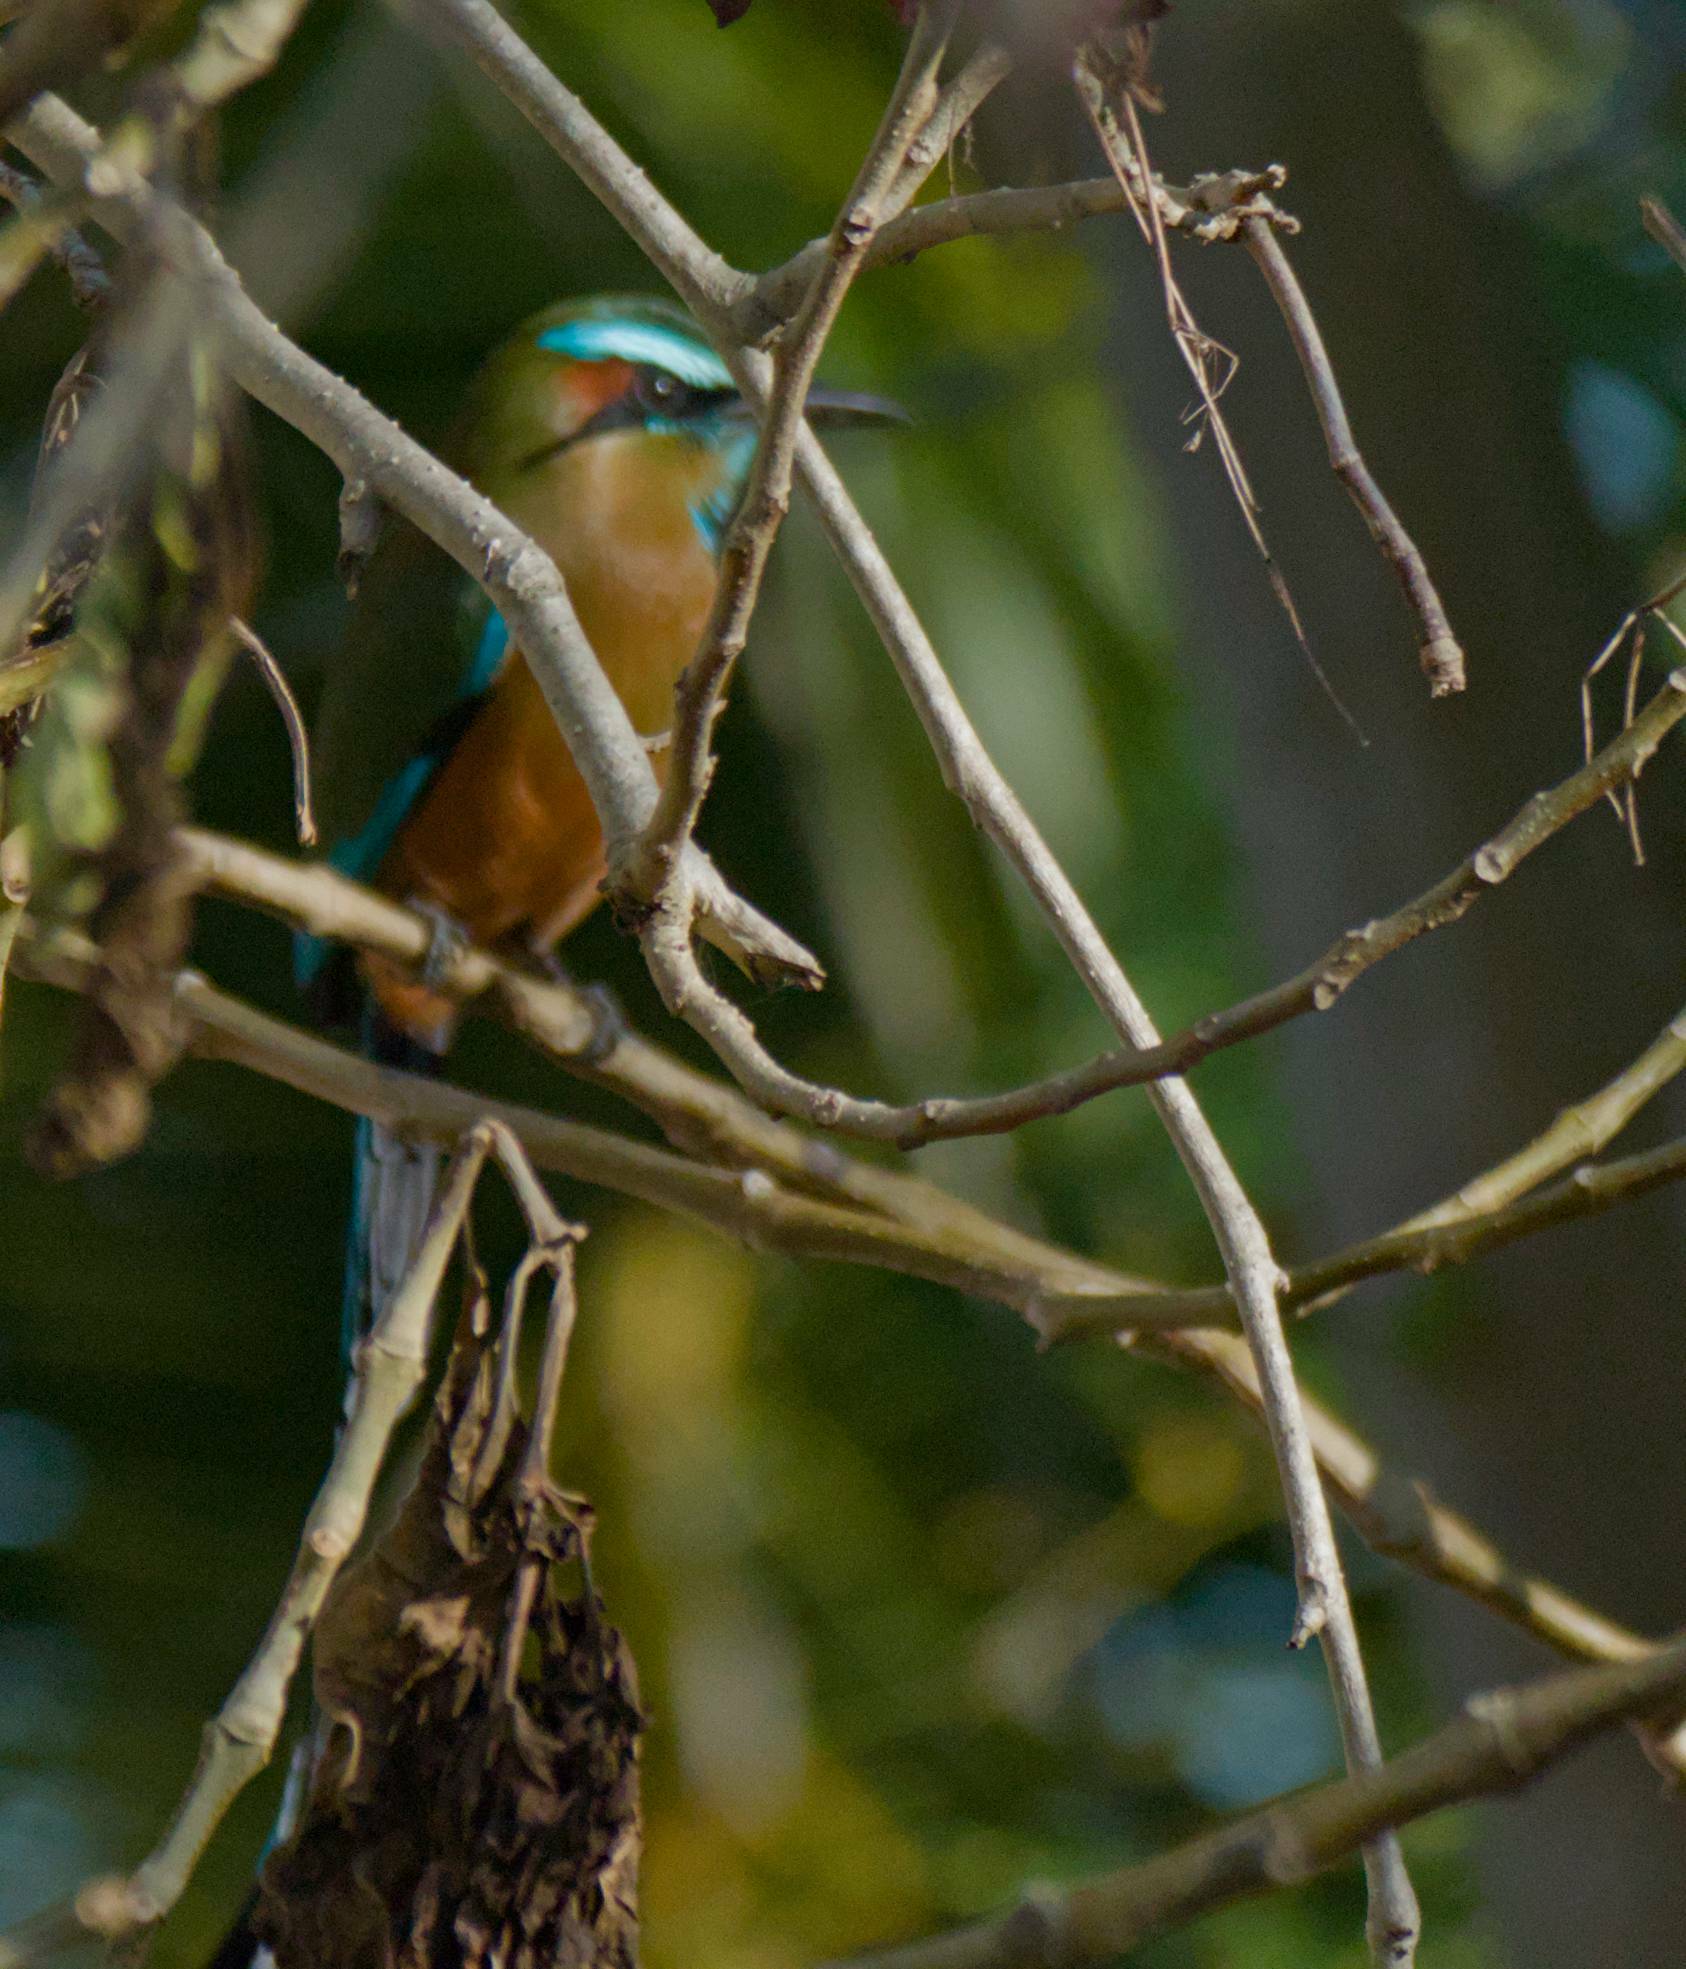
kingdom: Animalia
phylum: Chordata
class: Aves
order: Coraciiformes
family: Momotidae
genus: Eumomota
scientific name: Eumomota superciliosa
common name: Turquoise-browed motmot
